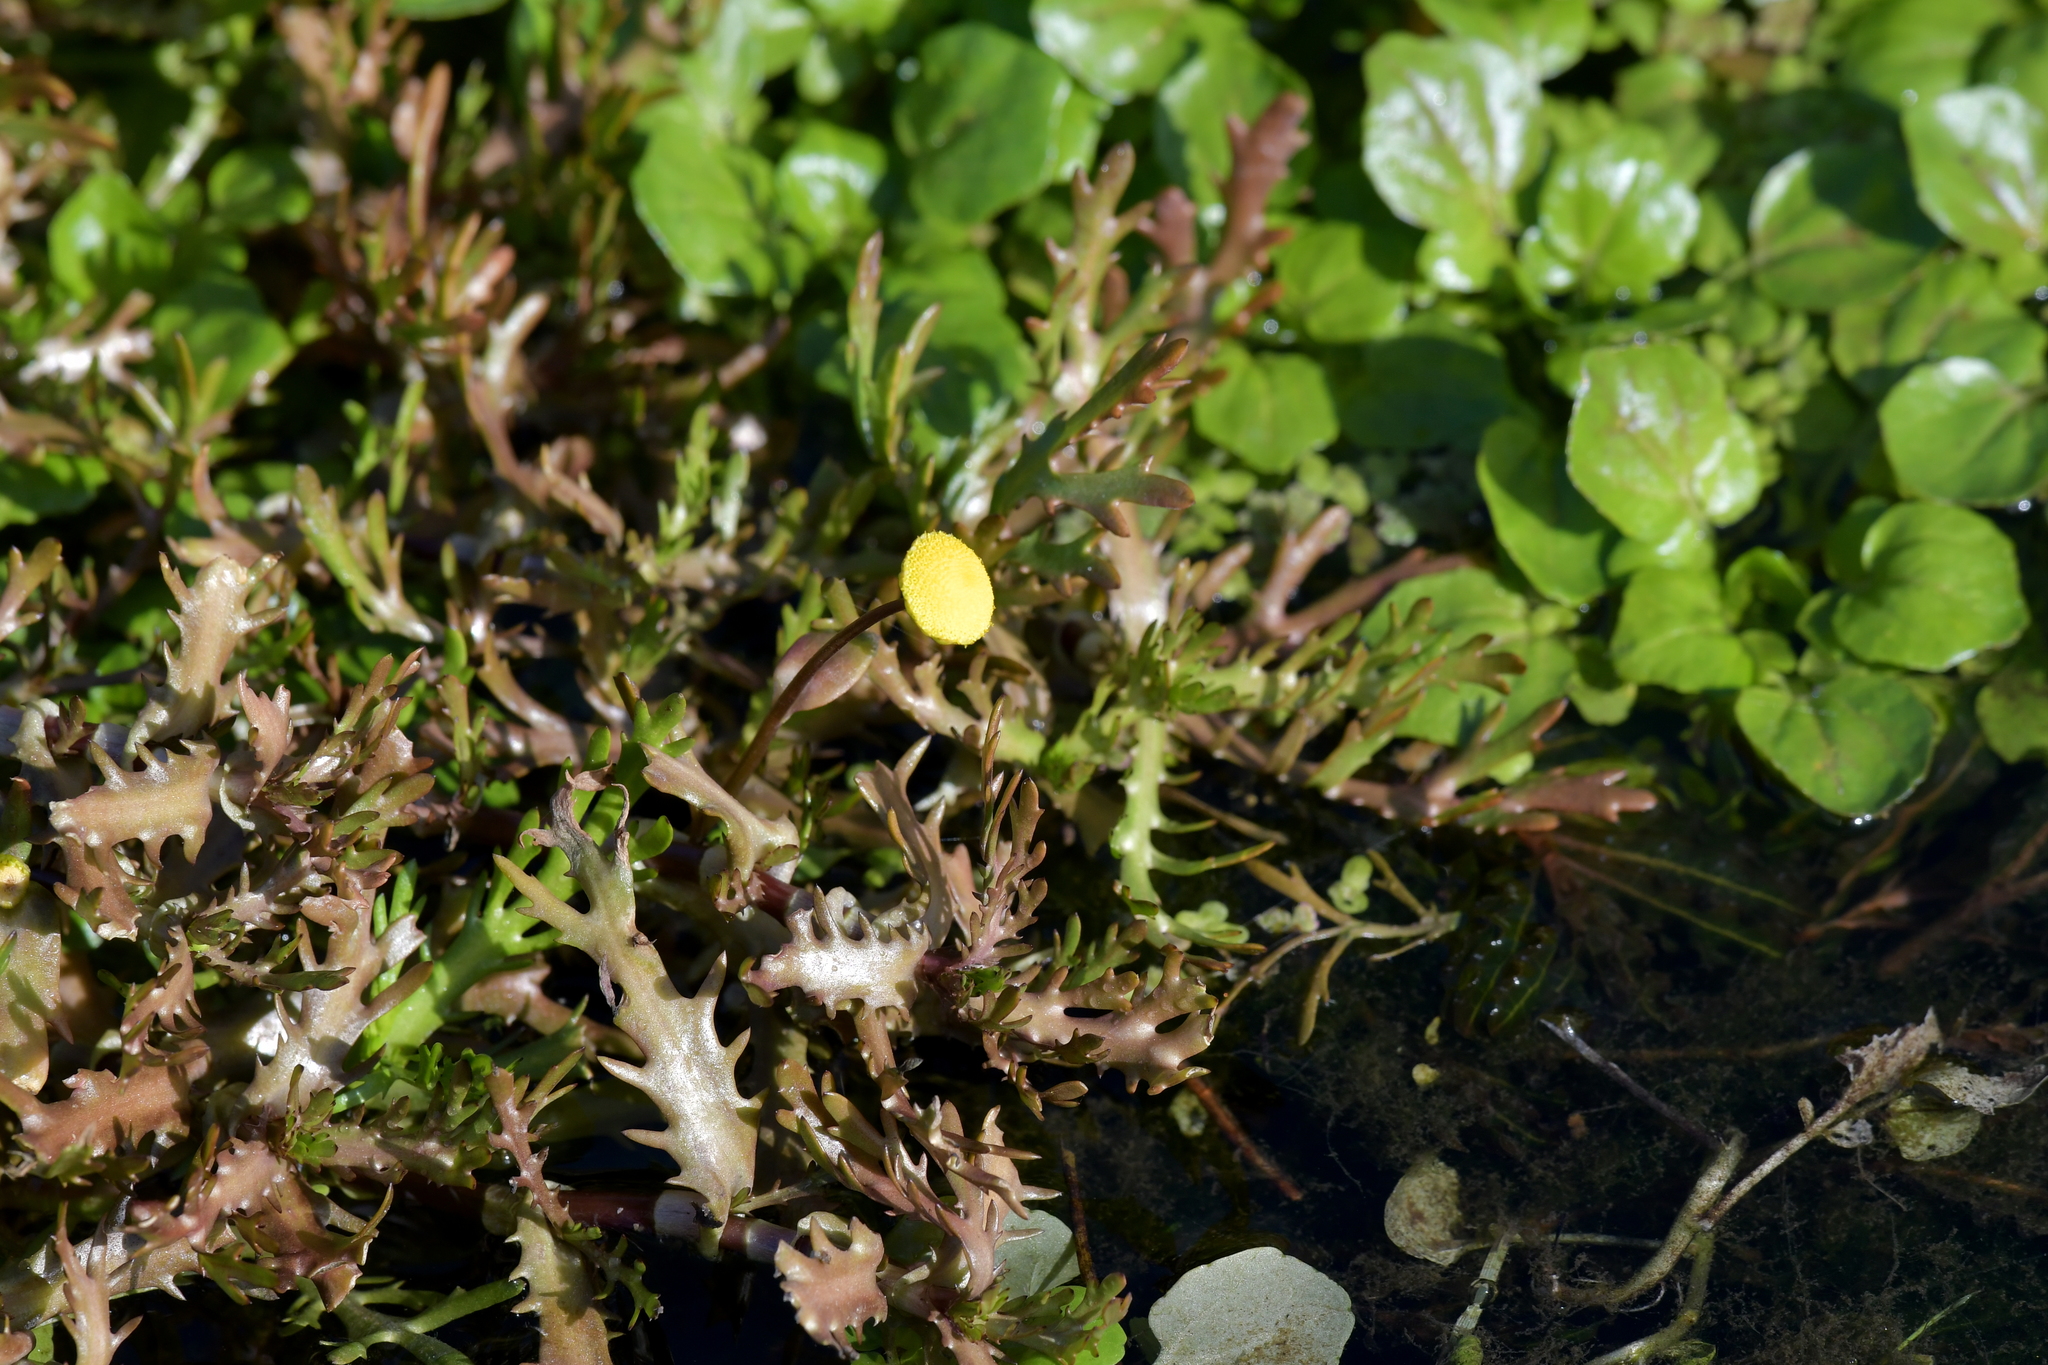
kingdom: Plantae
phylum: Tracheophyta
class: Magnoliopsida
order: Asterales
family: Asteraceae
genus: Cotula
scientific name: Cotula coronopifolia
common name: Buttonweed
